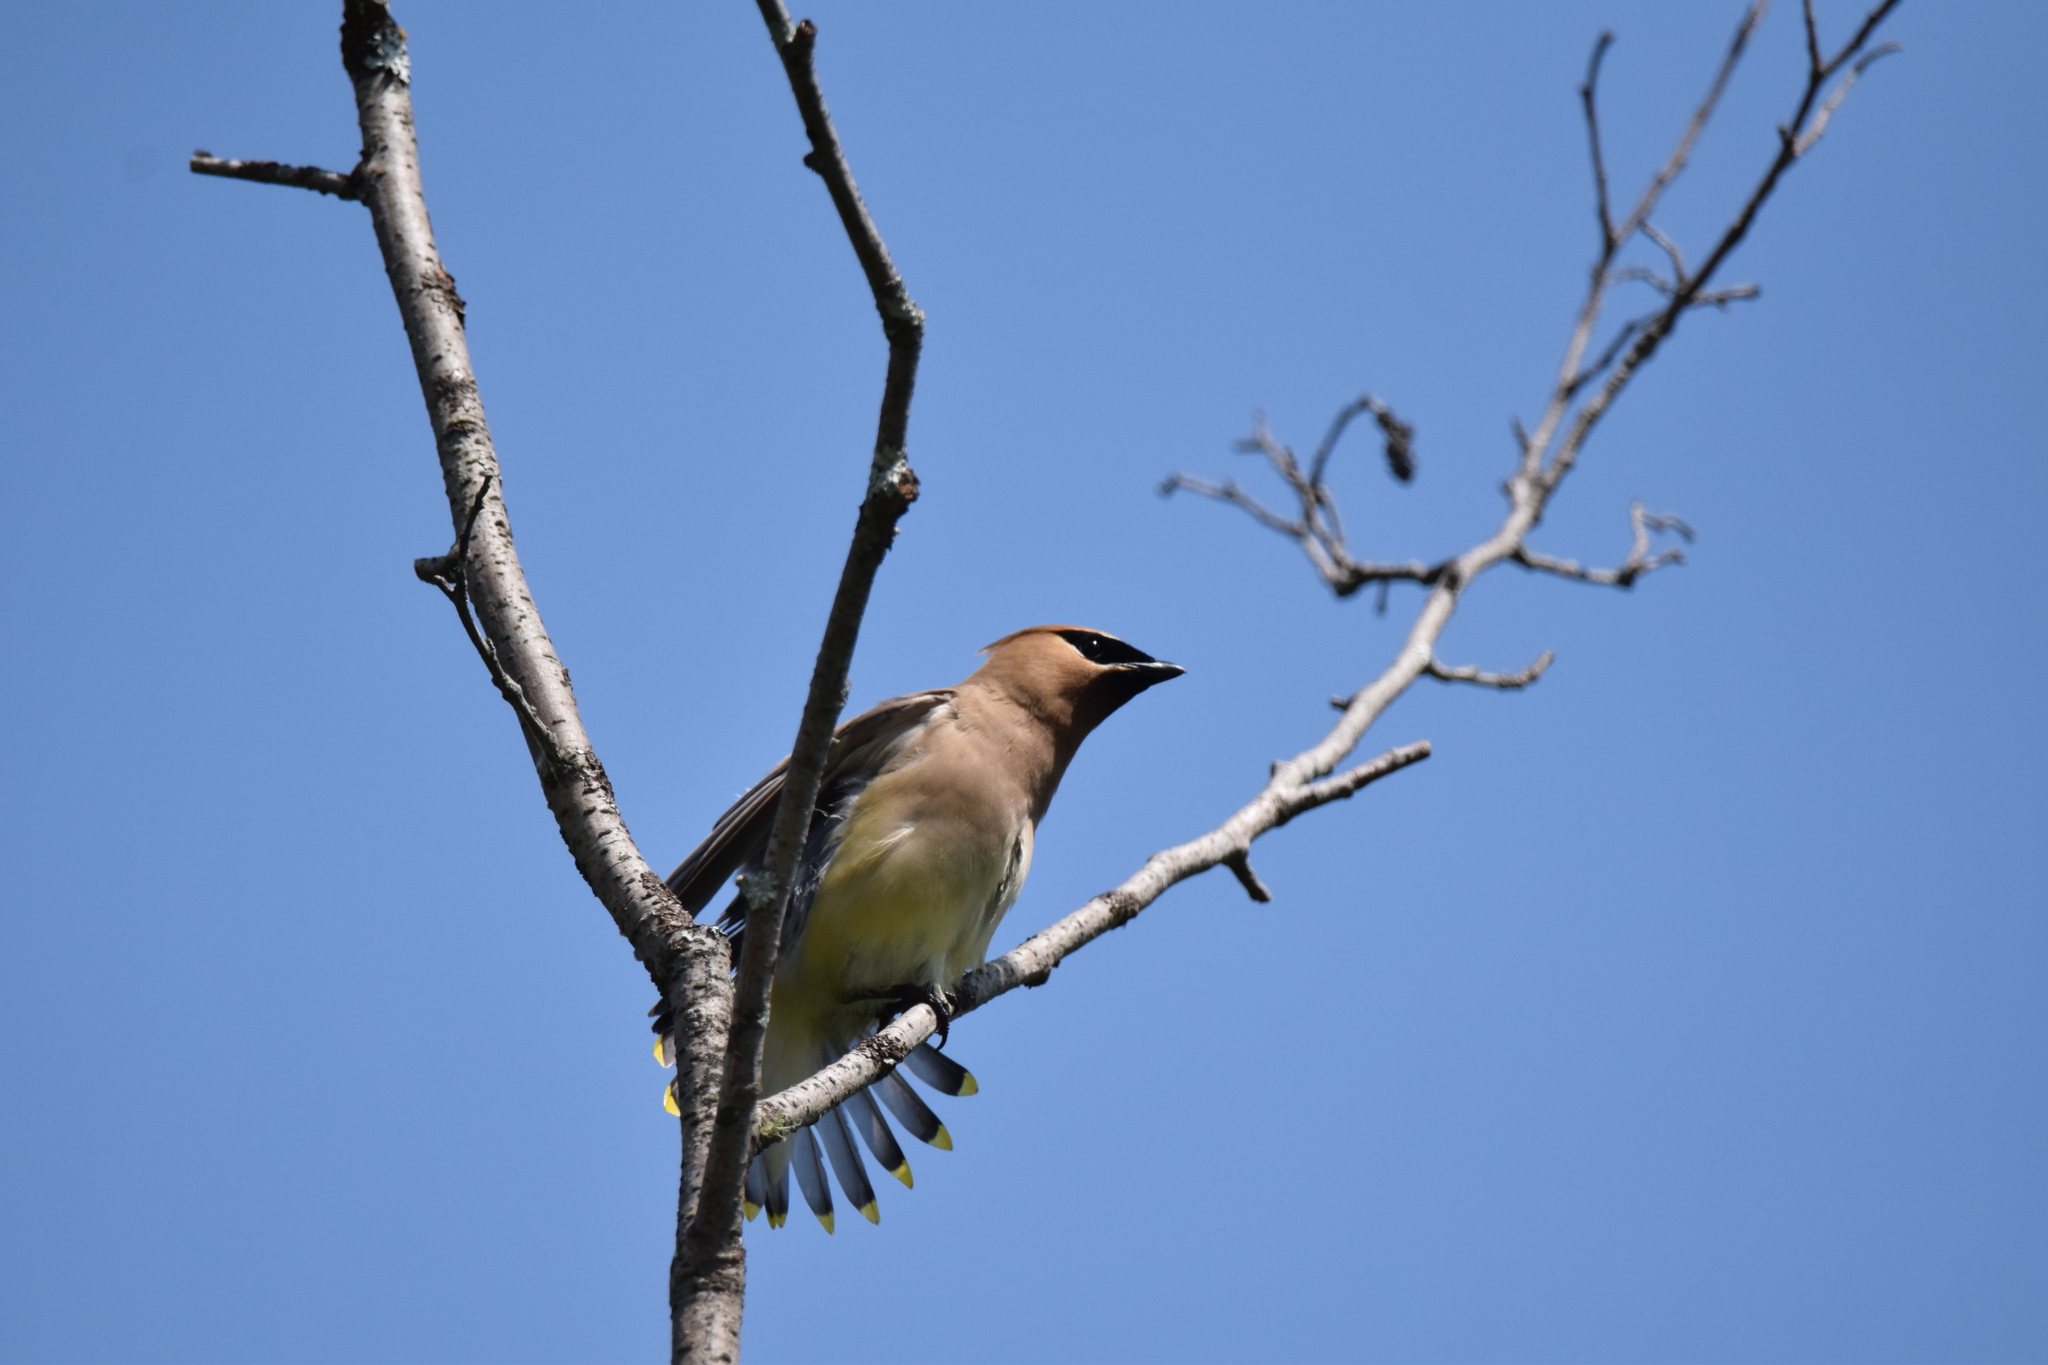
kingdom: Animalia
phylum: Chordata
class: Aves
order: Passeriformes
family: Bombycillidae
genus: Bombycilla
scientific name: Bombycilla cedrorum
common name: Cedar waxwing
